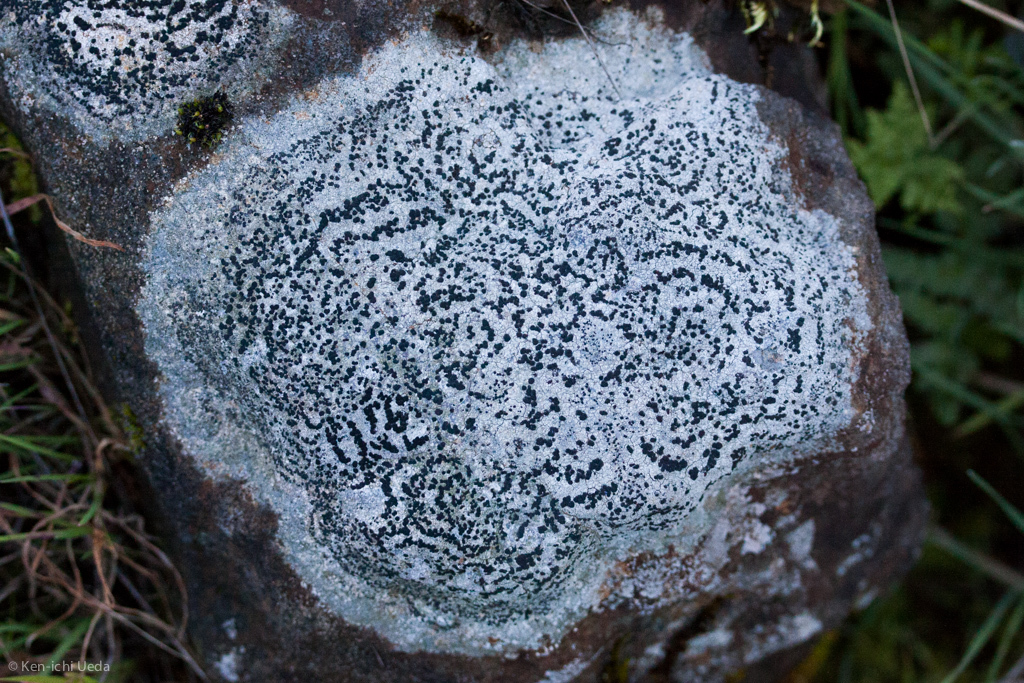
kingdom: Fungi
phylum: Ascomycota
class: Lecanoromycetes
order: Lecideales
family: Lecideaceae
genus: Porpidia
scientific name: Porpidia crustulata
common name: Concentric boulder lichen
